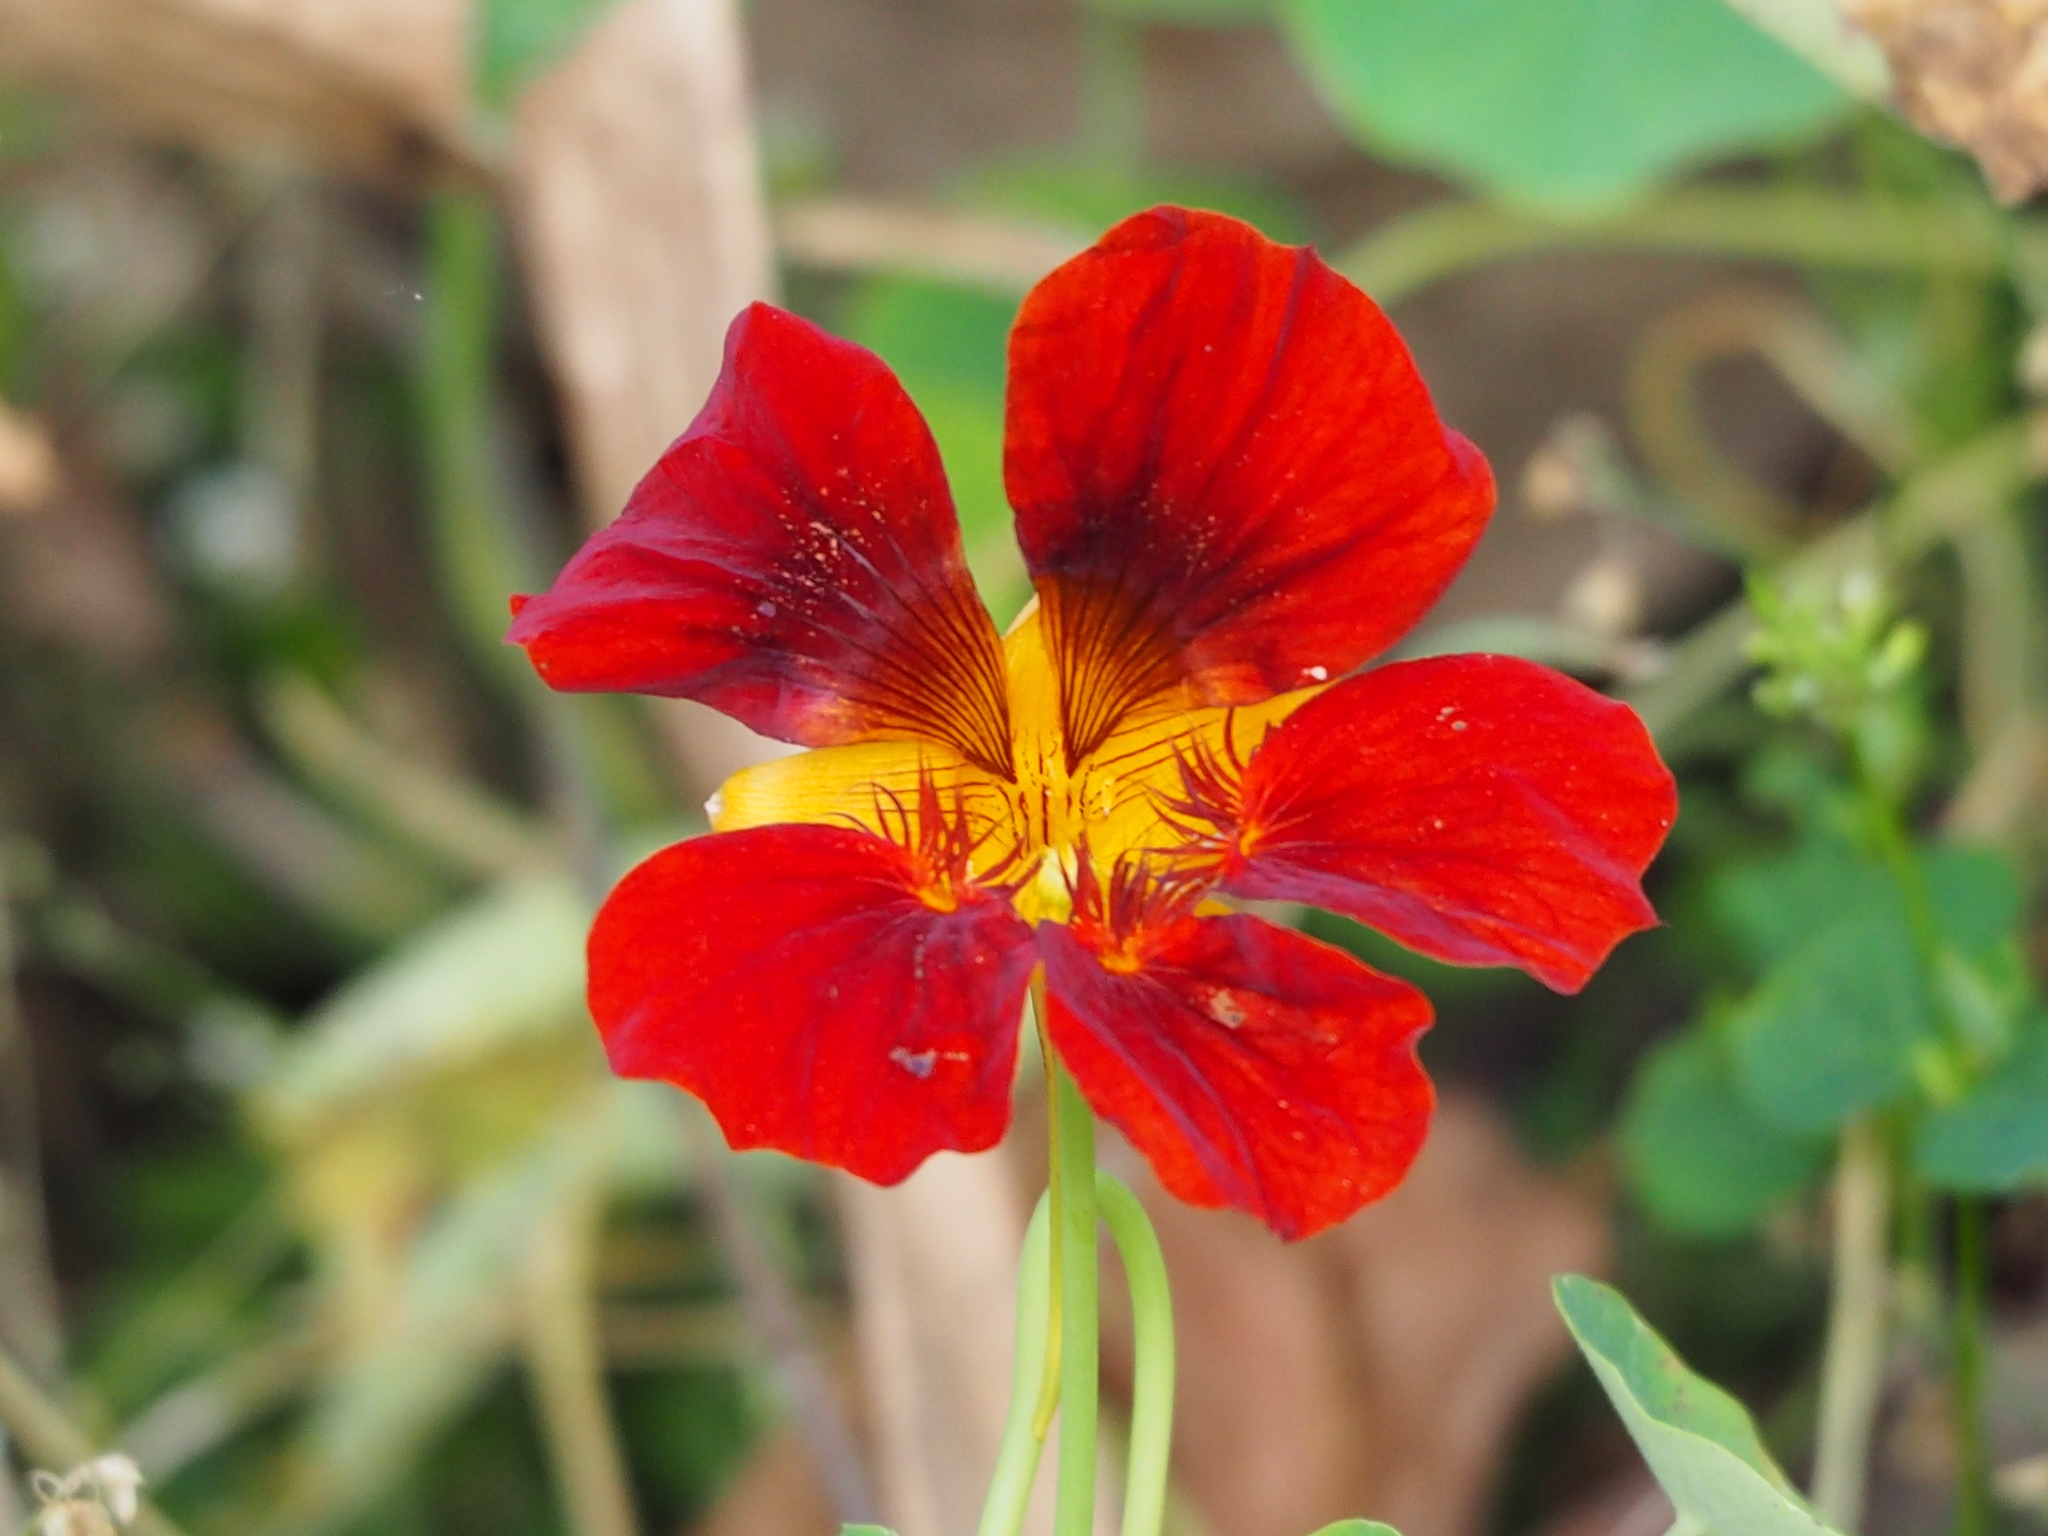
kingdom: Plantae
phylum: Tracheophyta
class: Magnoliopsida
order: Brassicales
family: Tropaeolaceae
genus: Tropaeolum
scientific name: Tropaeolum majus
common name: Nasturtium
